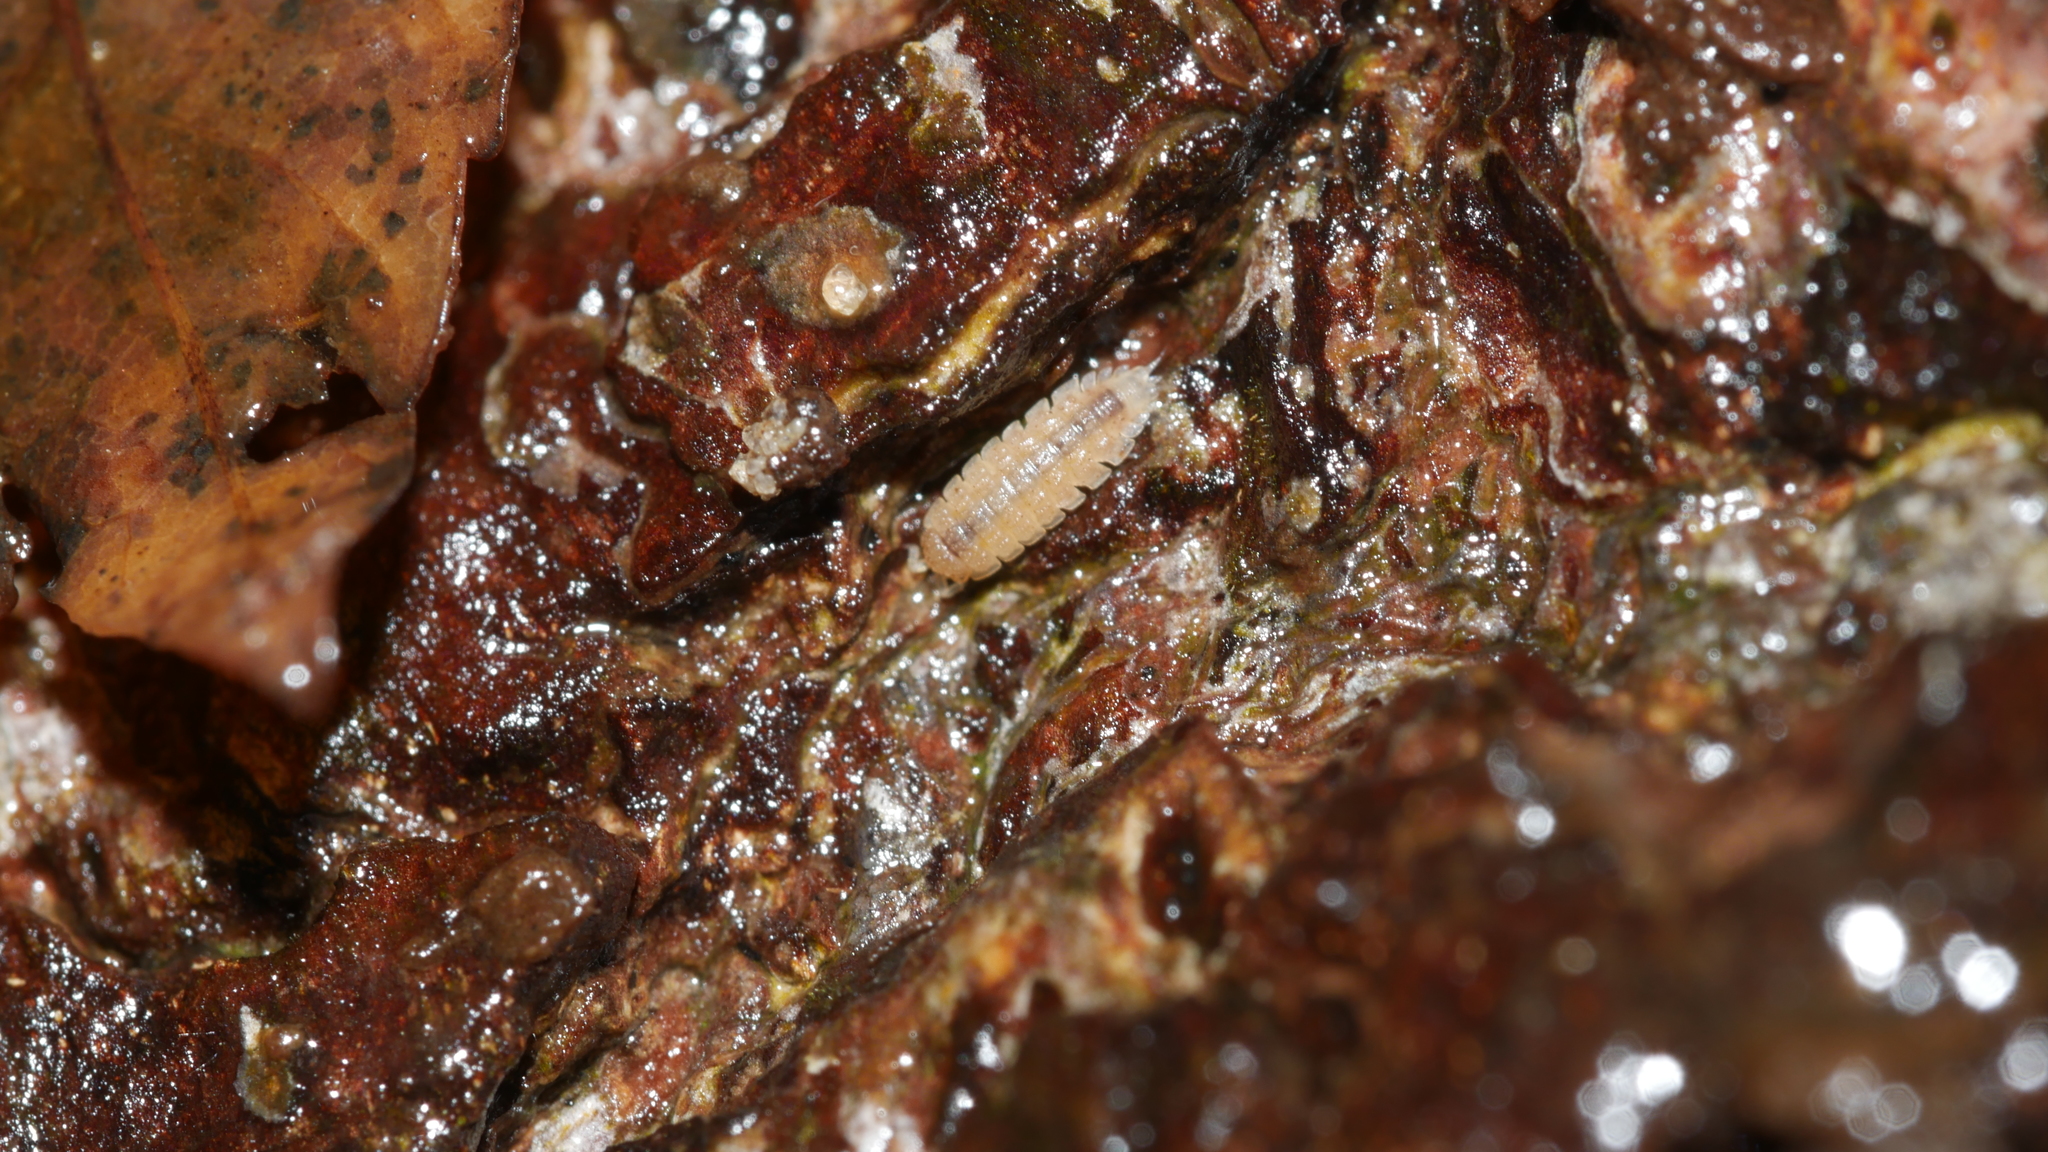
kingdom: Animalia
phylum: Arthropoda
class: Malacostraca
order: Isopoda
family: Trichoniscidae
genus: Haplophthalmus
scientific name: Haplophthalmus danicus
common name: Pillbug
